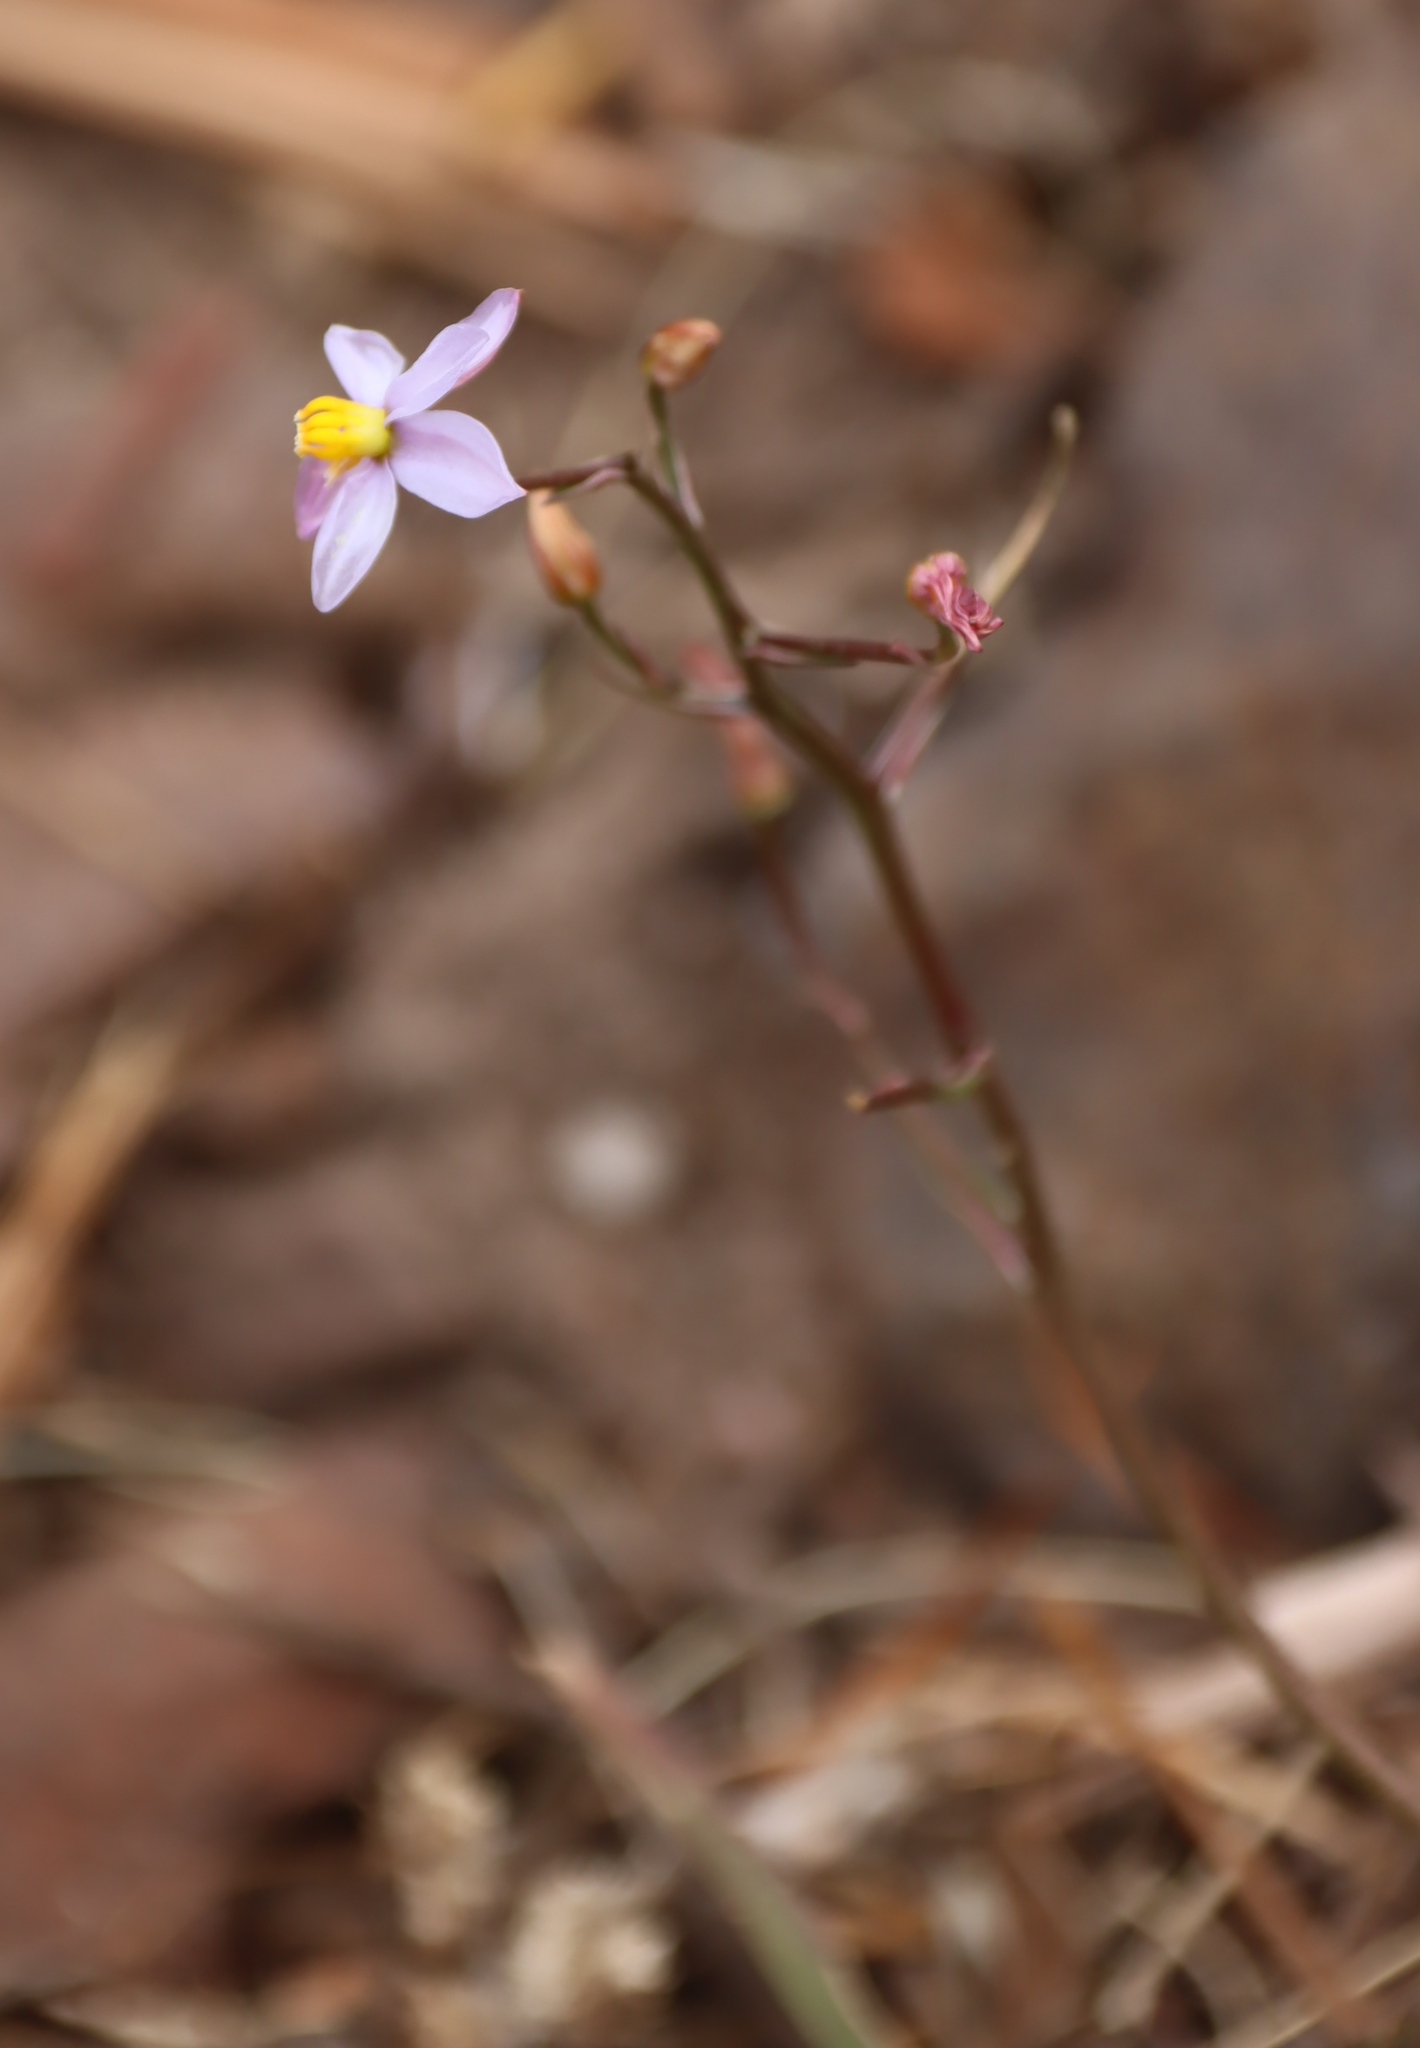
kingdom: Plantae
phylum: Tracheophyta
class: Liliopsida
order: Asparagales
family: Tecophilaeaceae
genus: Cyanella
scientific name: Cyanella hyacinthoides
